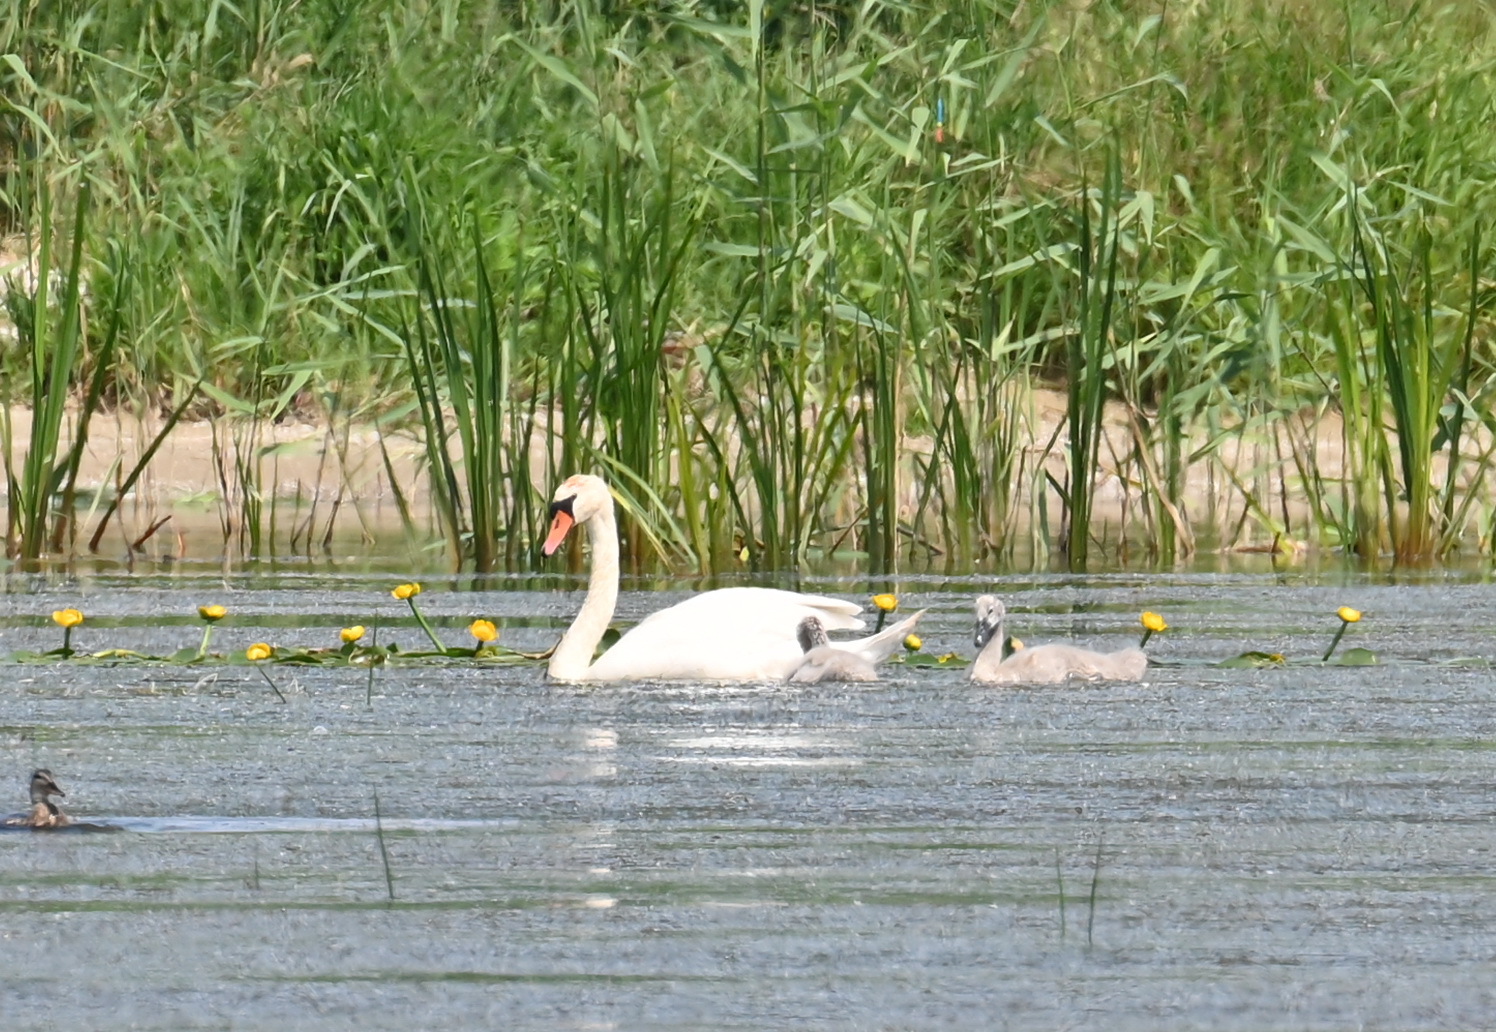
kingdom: Animalia
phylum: Chordata
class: Aves
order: Anseriformes
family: Anatidae
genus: Cygnus
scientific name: Cygnus olor
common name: Mute swan
